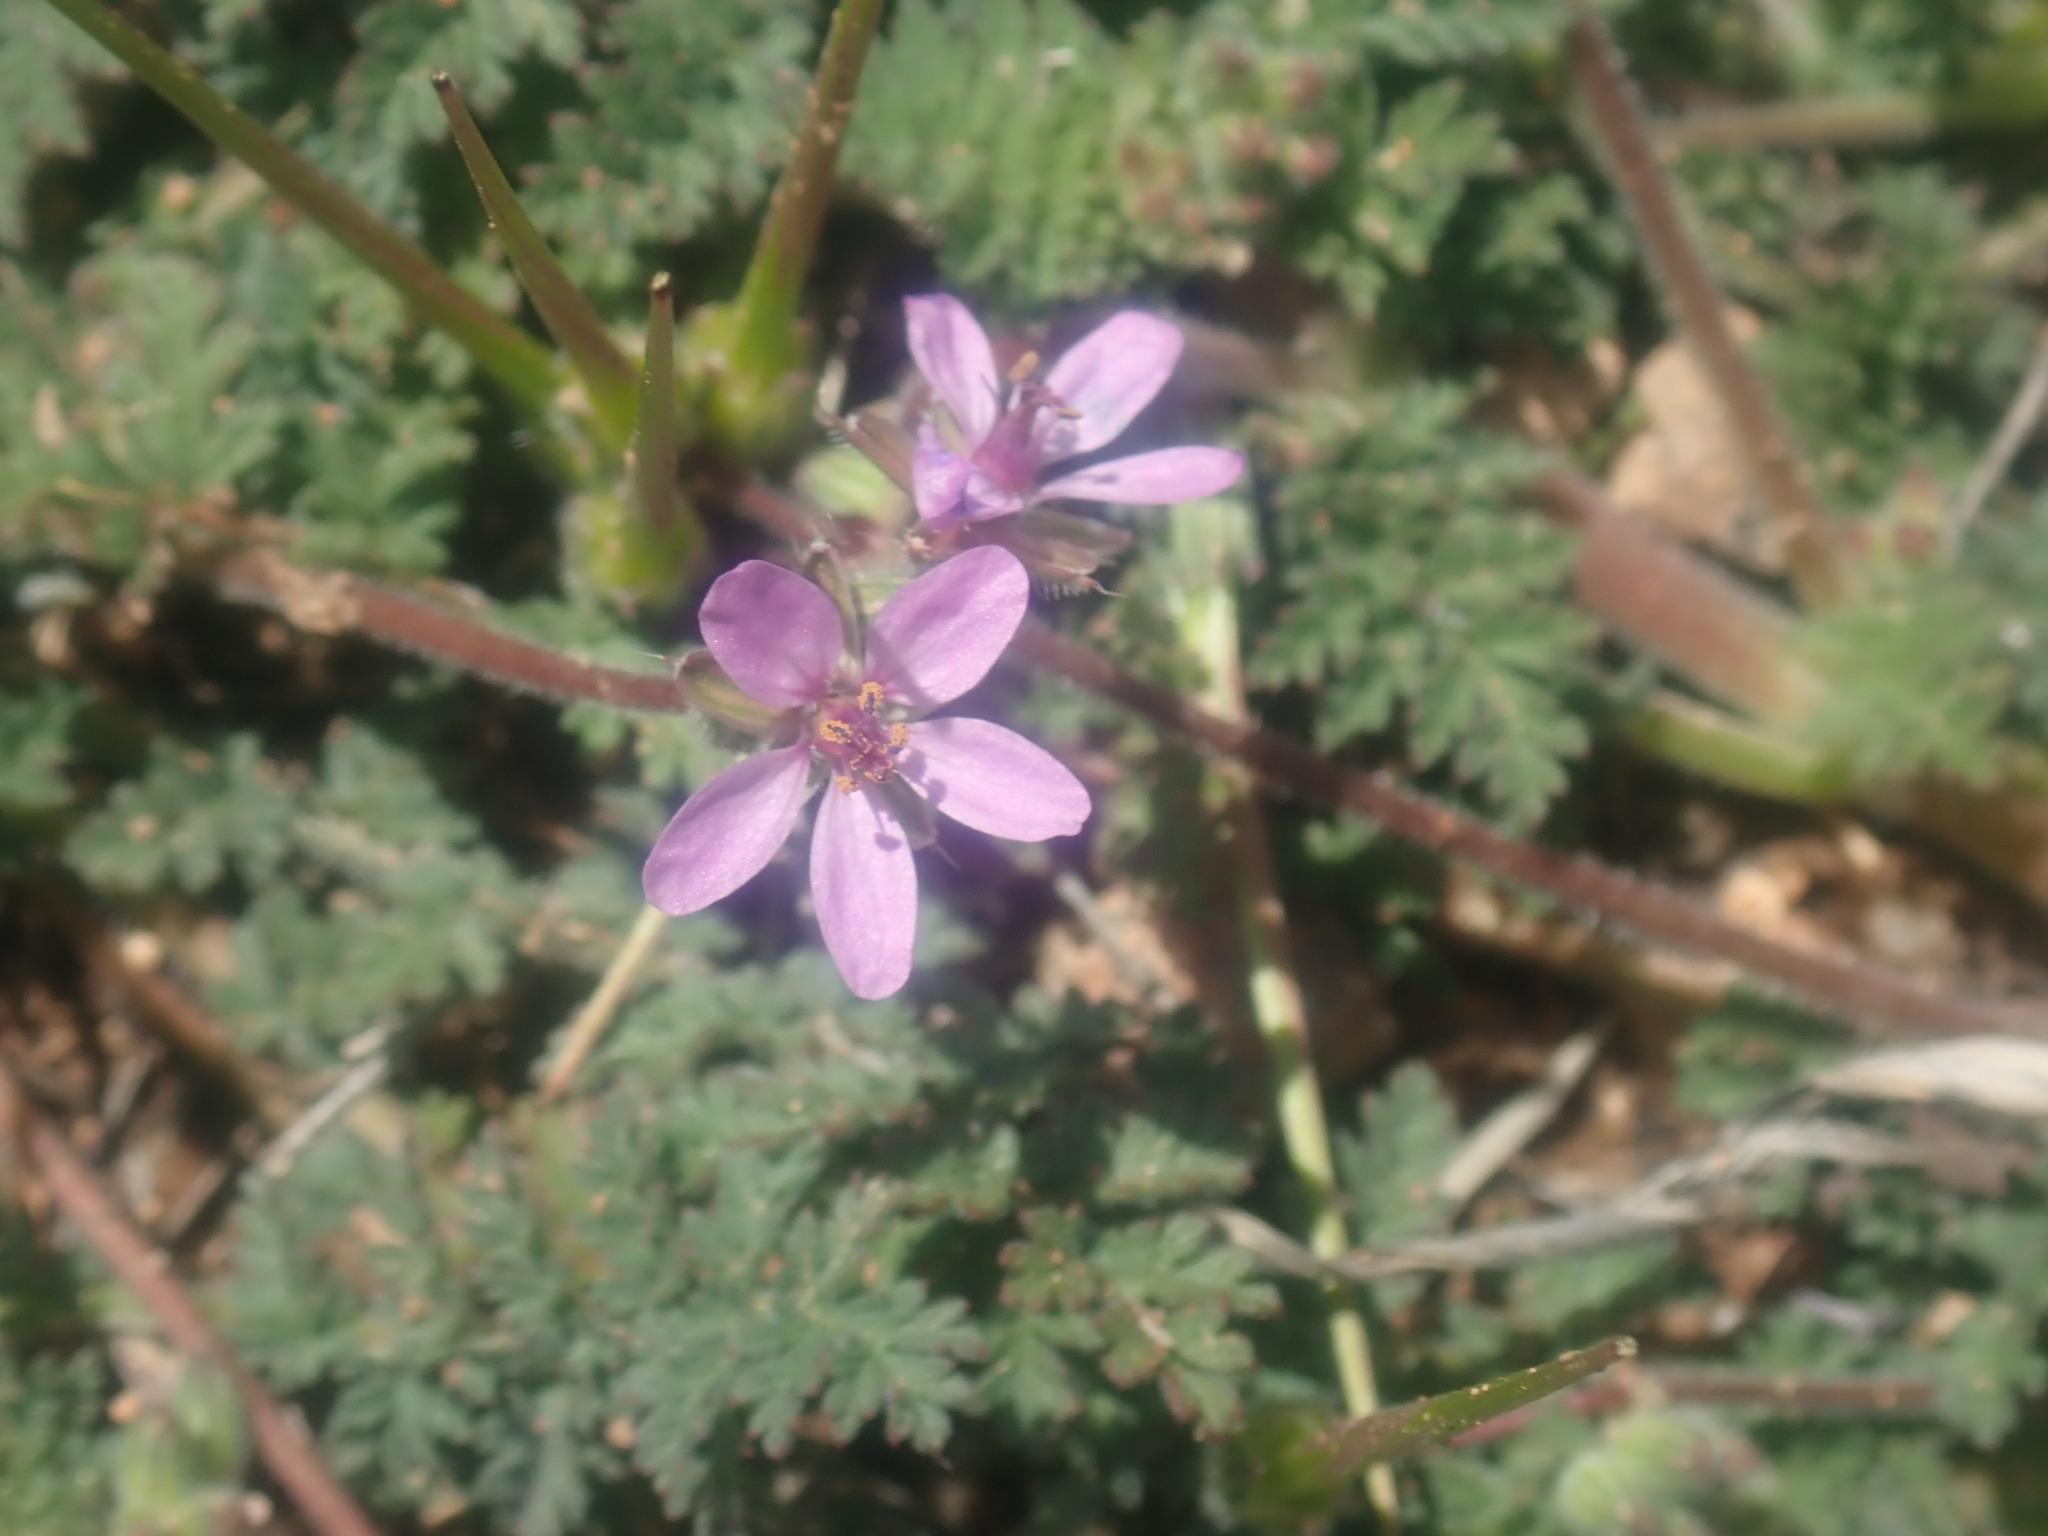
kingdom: Plantae
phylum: Tracheophyta
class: Magnoliopsida
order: Geraniales
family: Geraniaceae
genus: Erodium
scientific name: Erodium cicutarium
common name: Common stork's-bill
